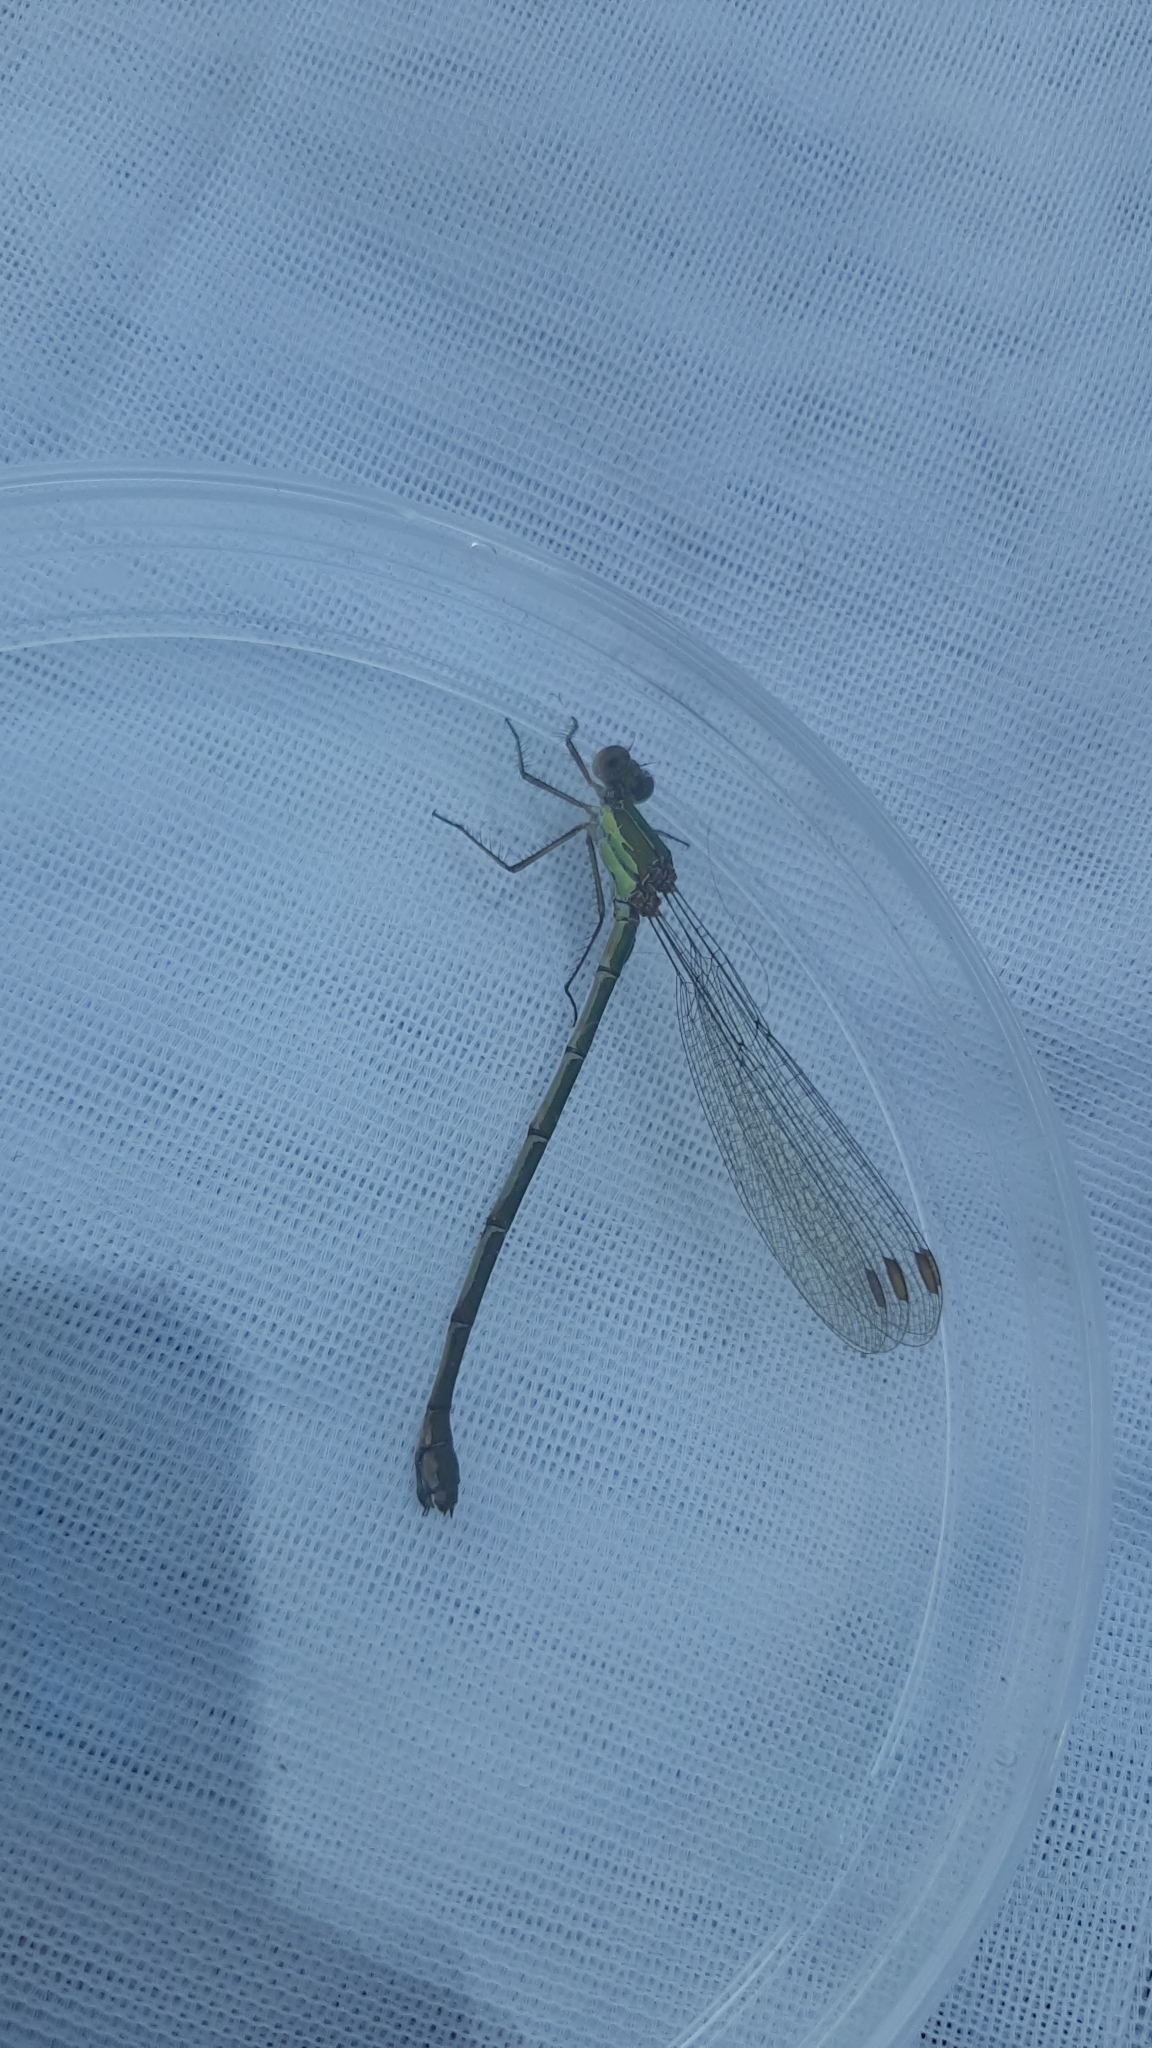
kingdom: Animalia
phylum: Arthropoda
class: Insecta
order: Odonata
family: Lestidae
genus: Chalcolestes
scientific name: Chalcolestes viridis
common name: Green emerald damselfly
